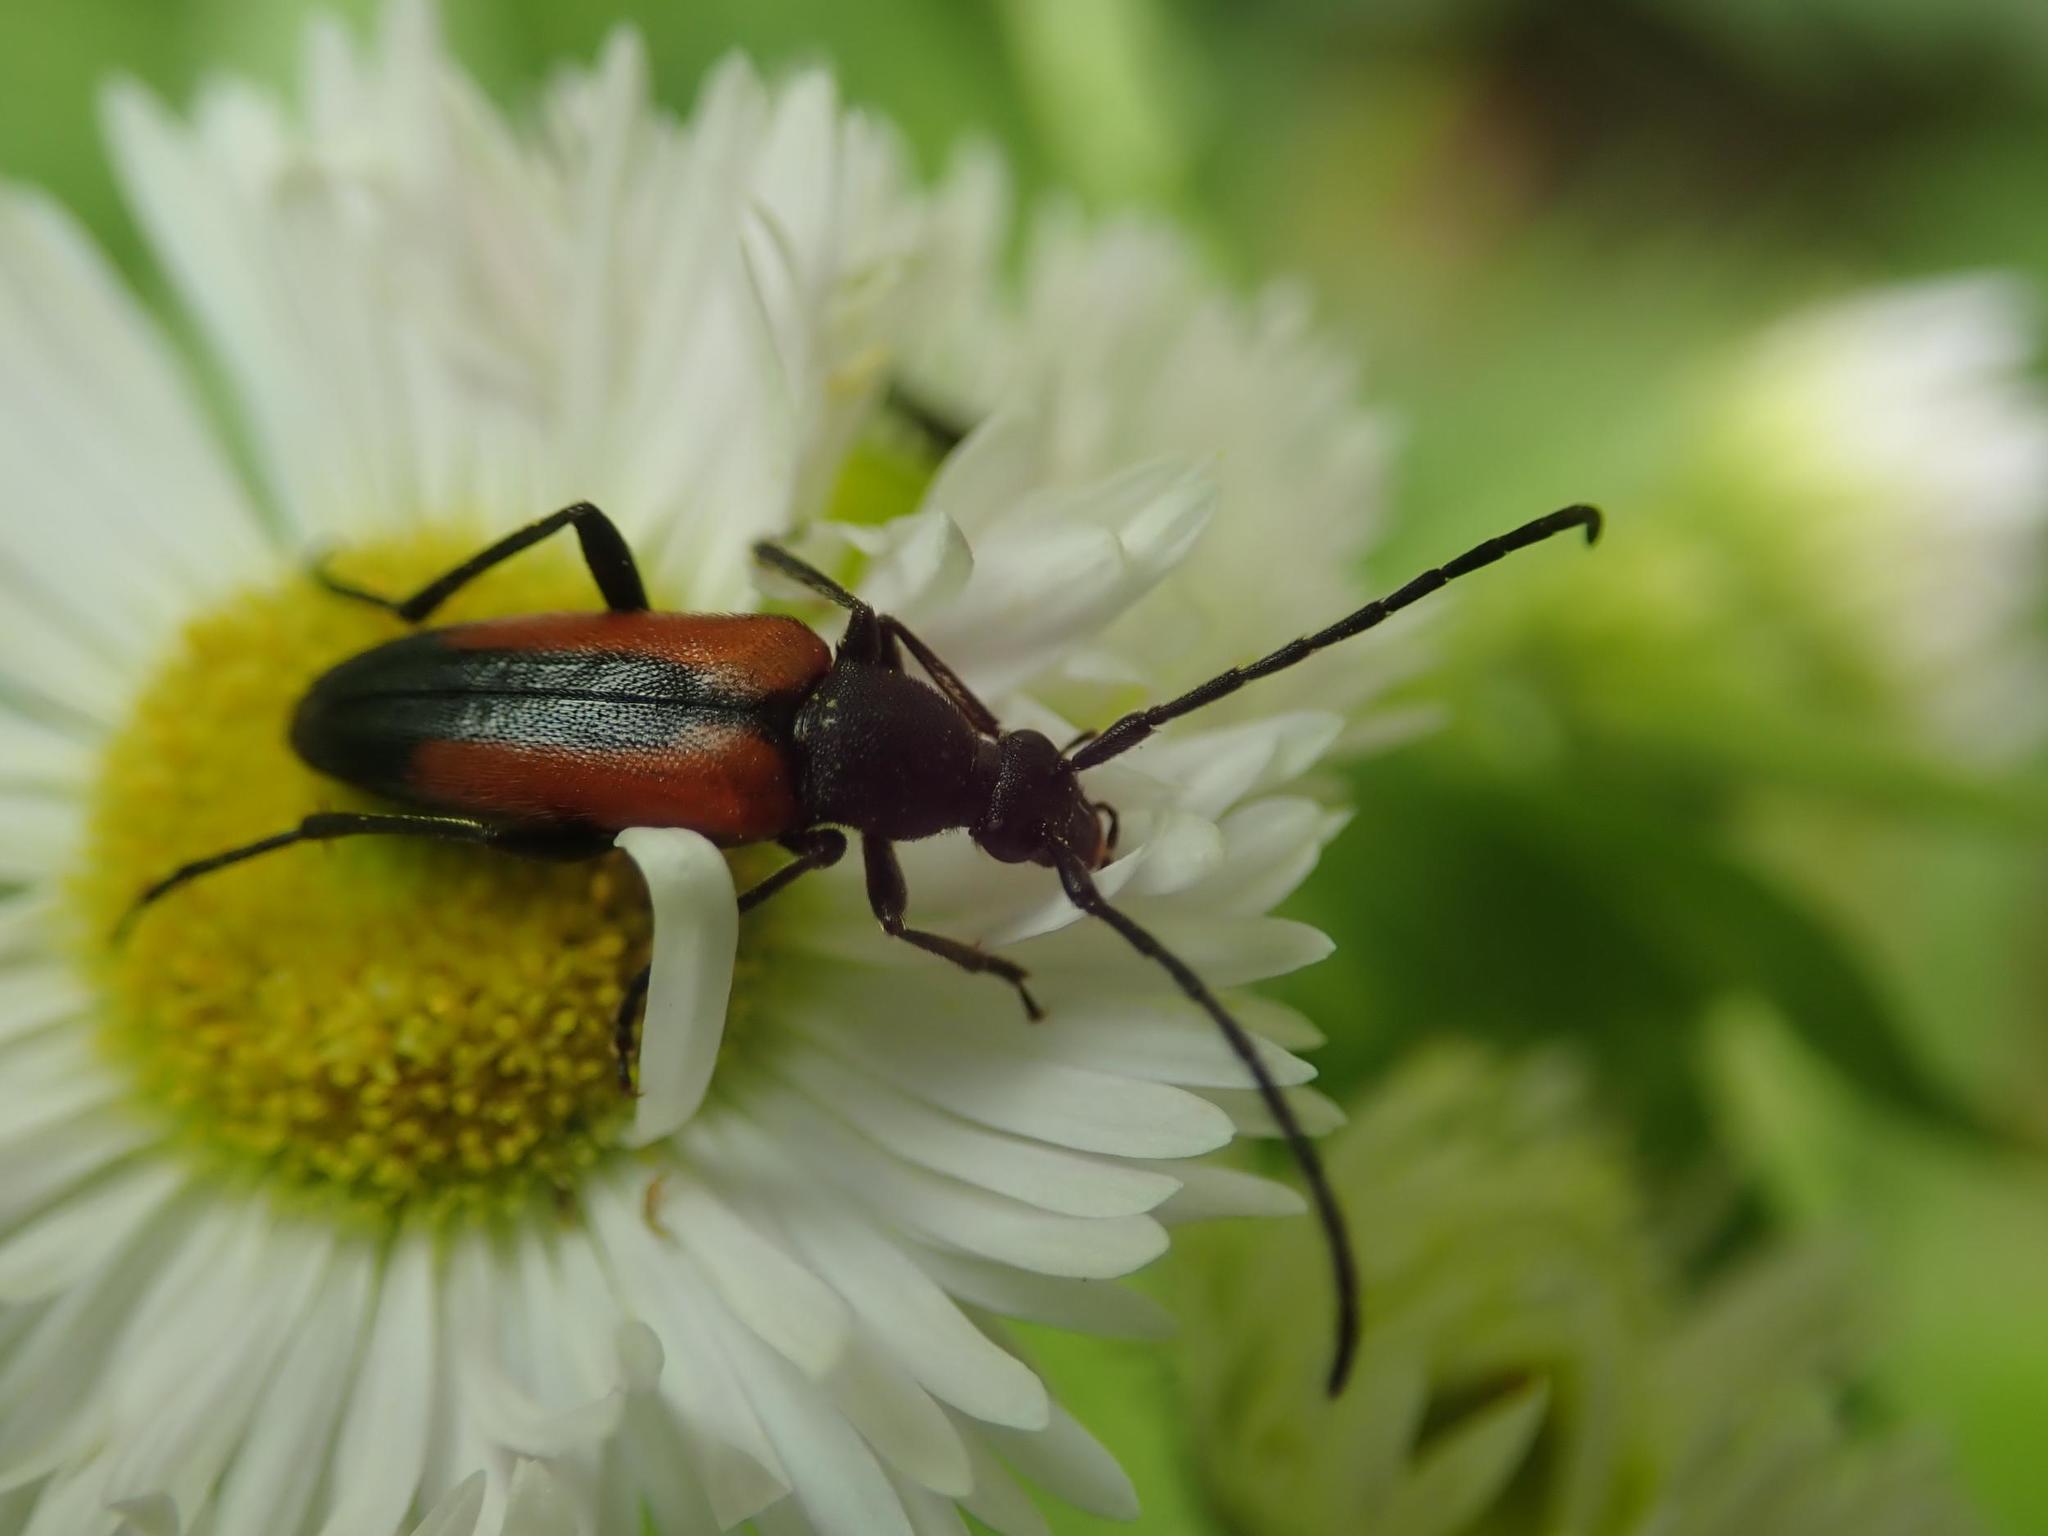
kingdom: Animalia
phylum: Arthropoda
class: Insecta
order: Coleoptera
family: Cerambycidae
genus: Stenurella
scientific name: Stenurella melanura
